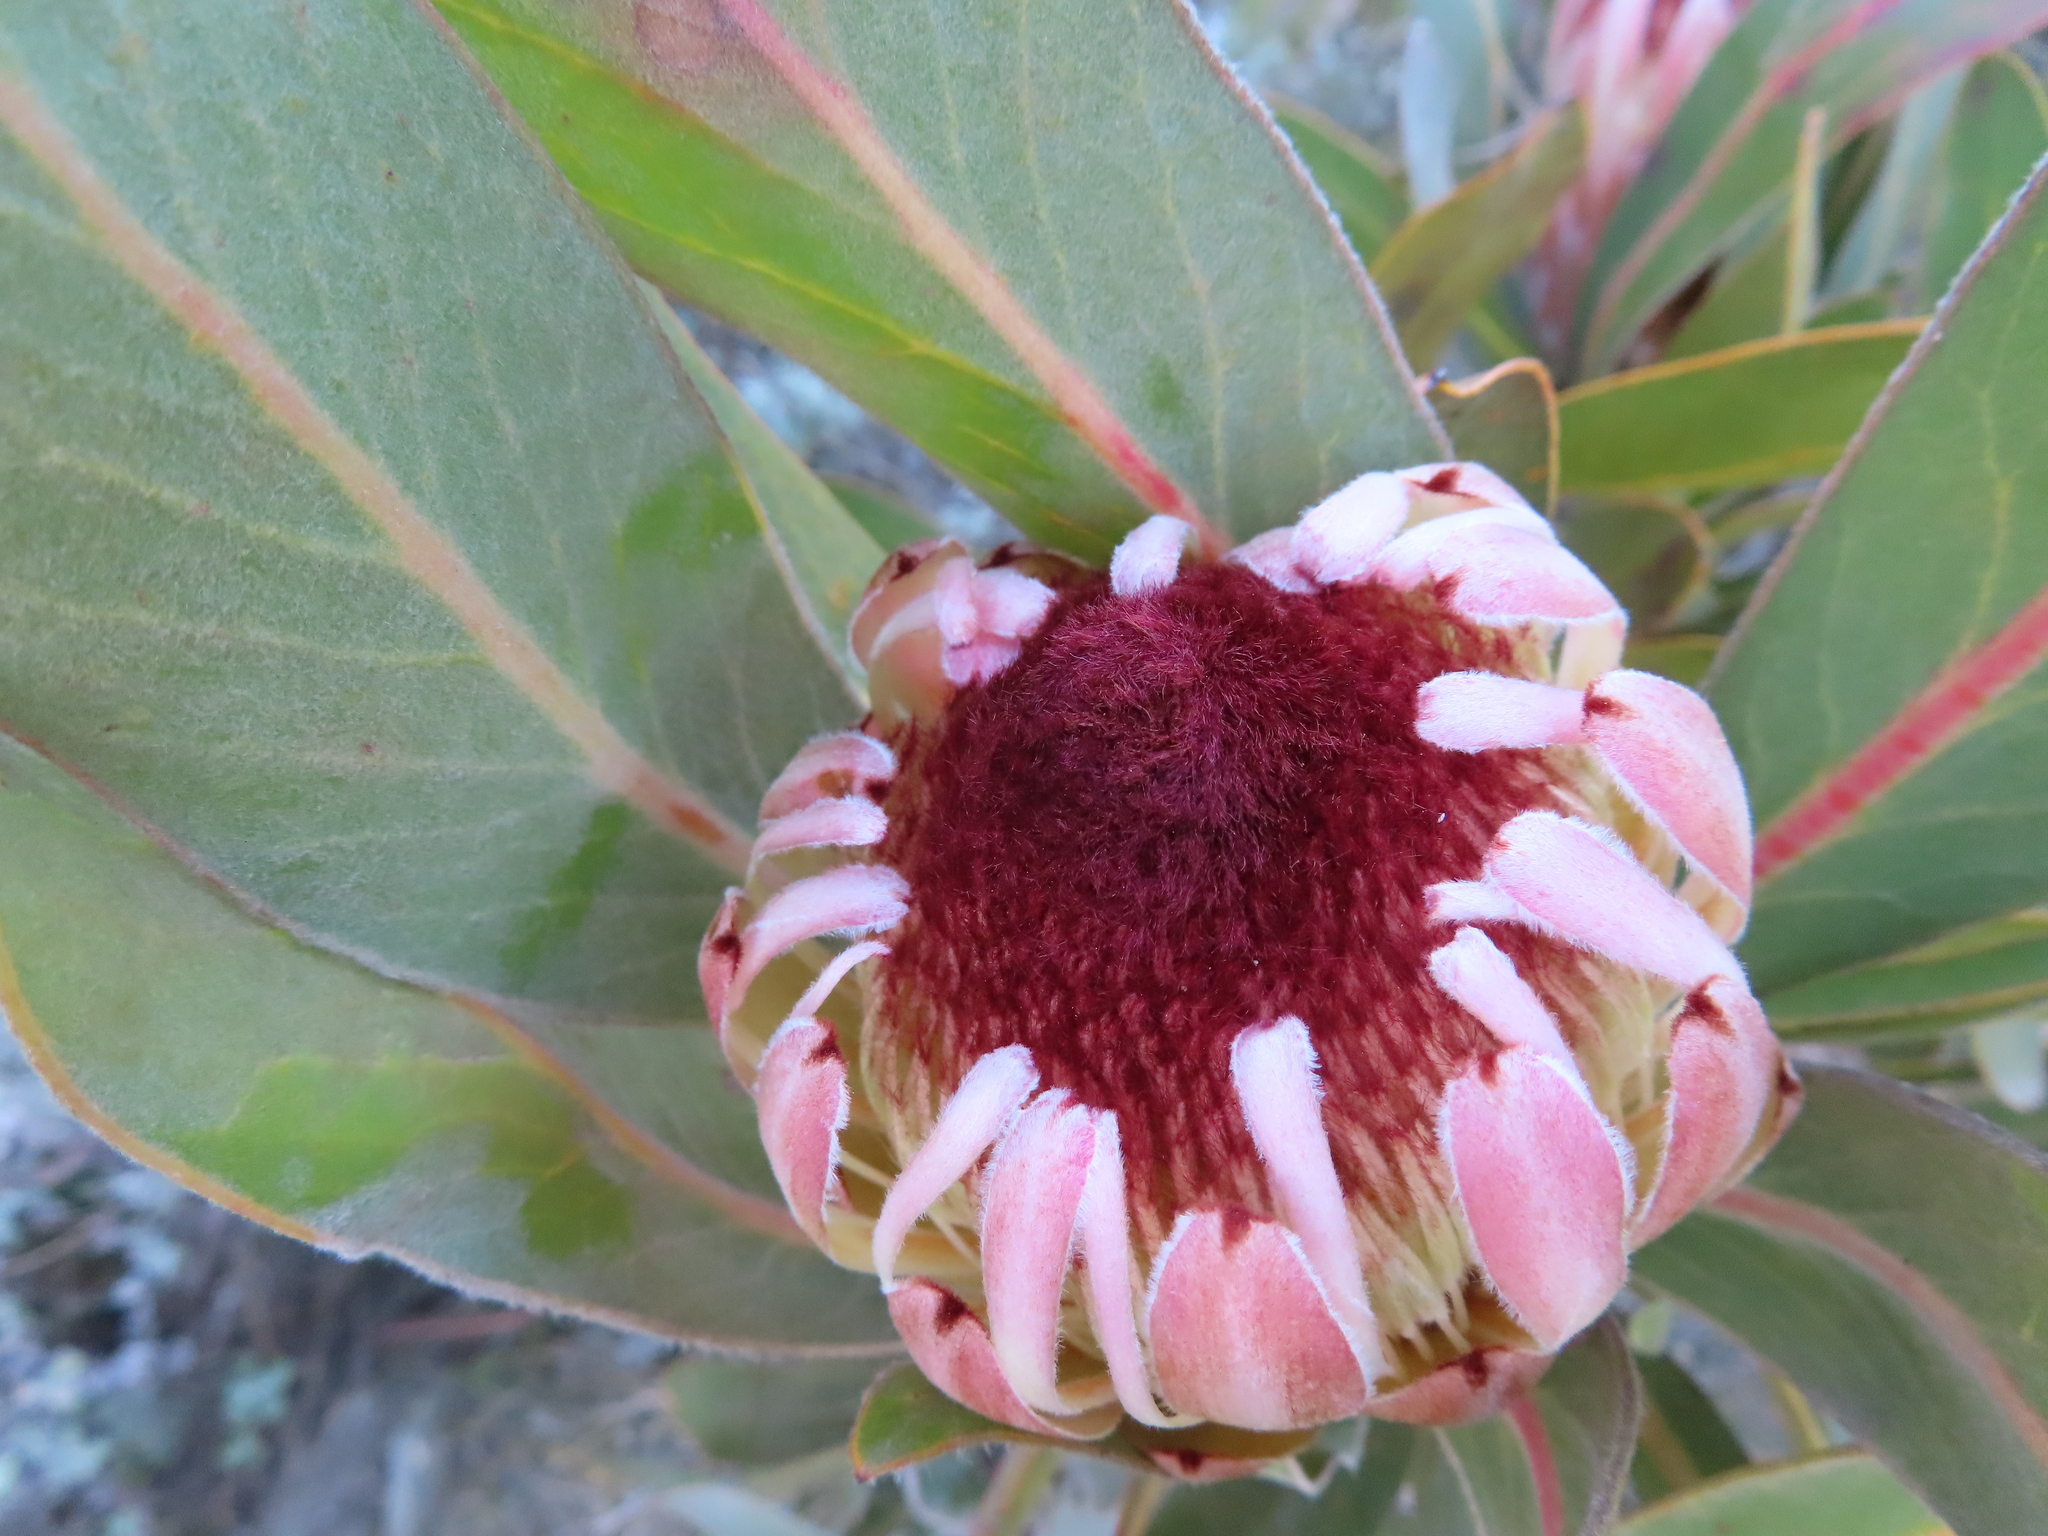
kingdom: Plantae
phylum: Tracheophyta
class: Magnoliopsida
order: Proteales
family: Proteaceae
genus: Protea
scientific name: Protea lorifolia
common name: Strap-leaved protea
